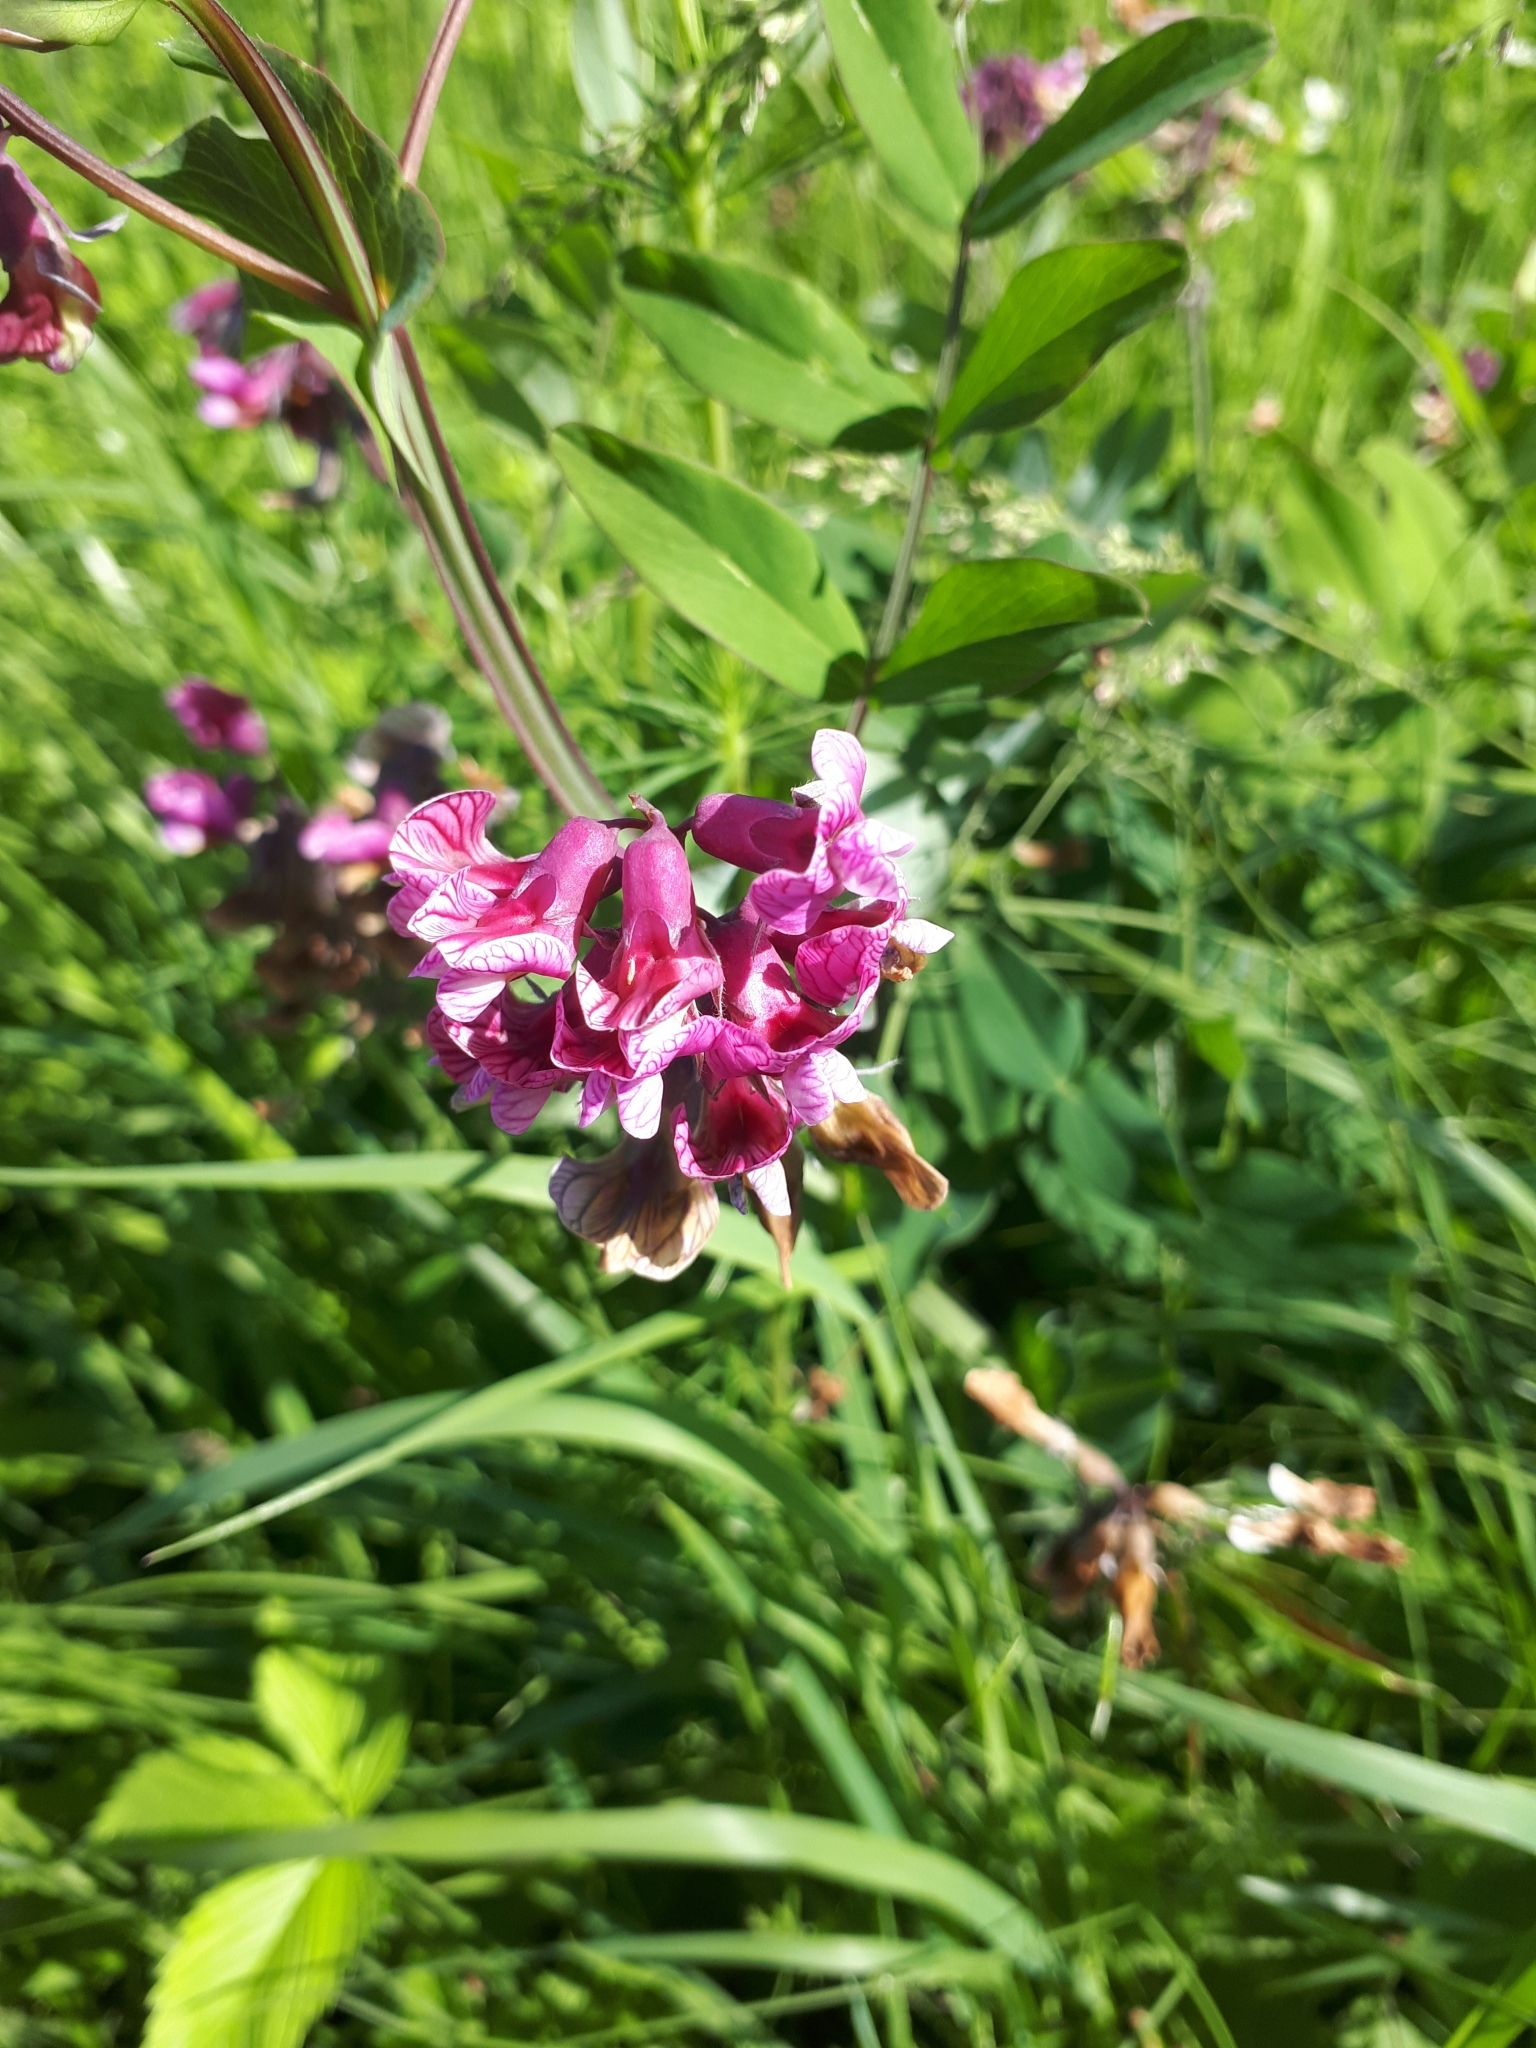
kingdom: Plantae
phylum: Tracheophyta
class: Magnoliopsida
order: Fabales
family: Fabaceae
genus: Lathyrus
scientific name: Lathyrus pisiformis
